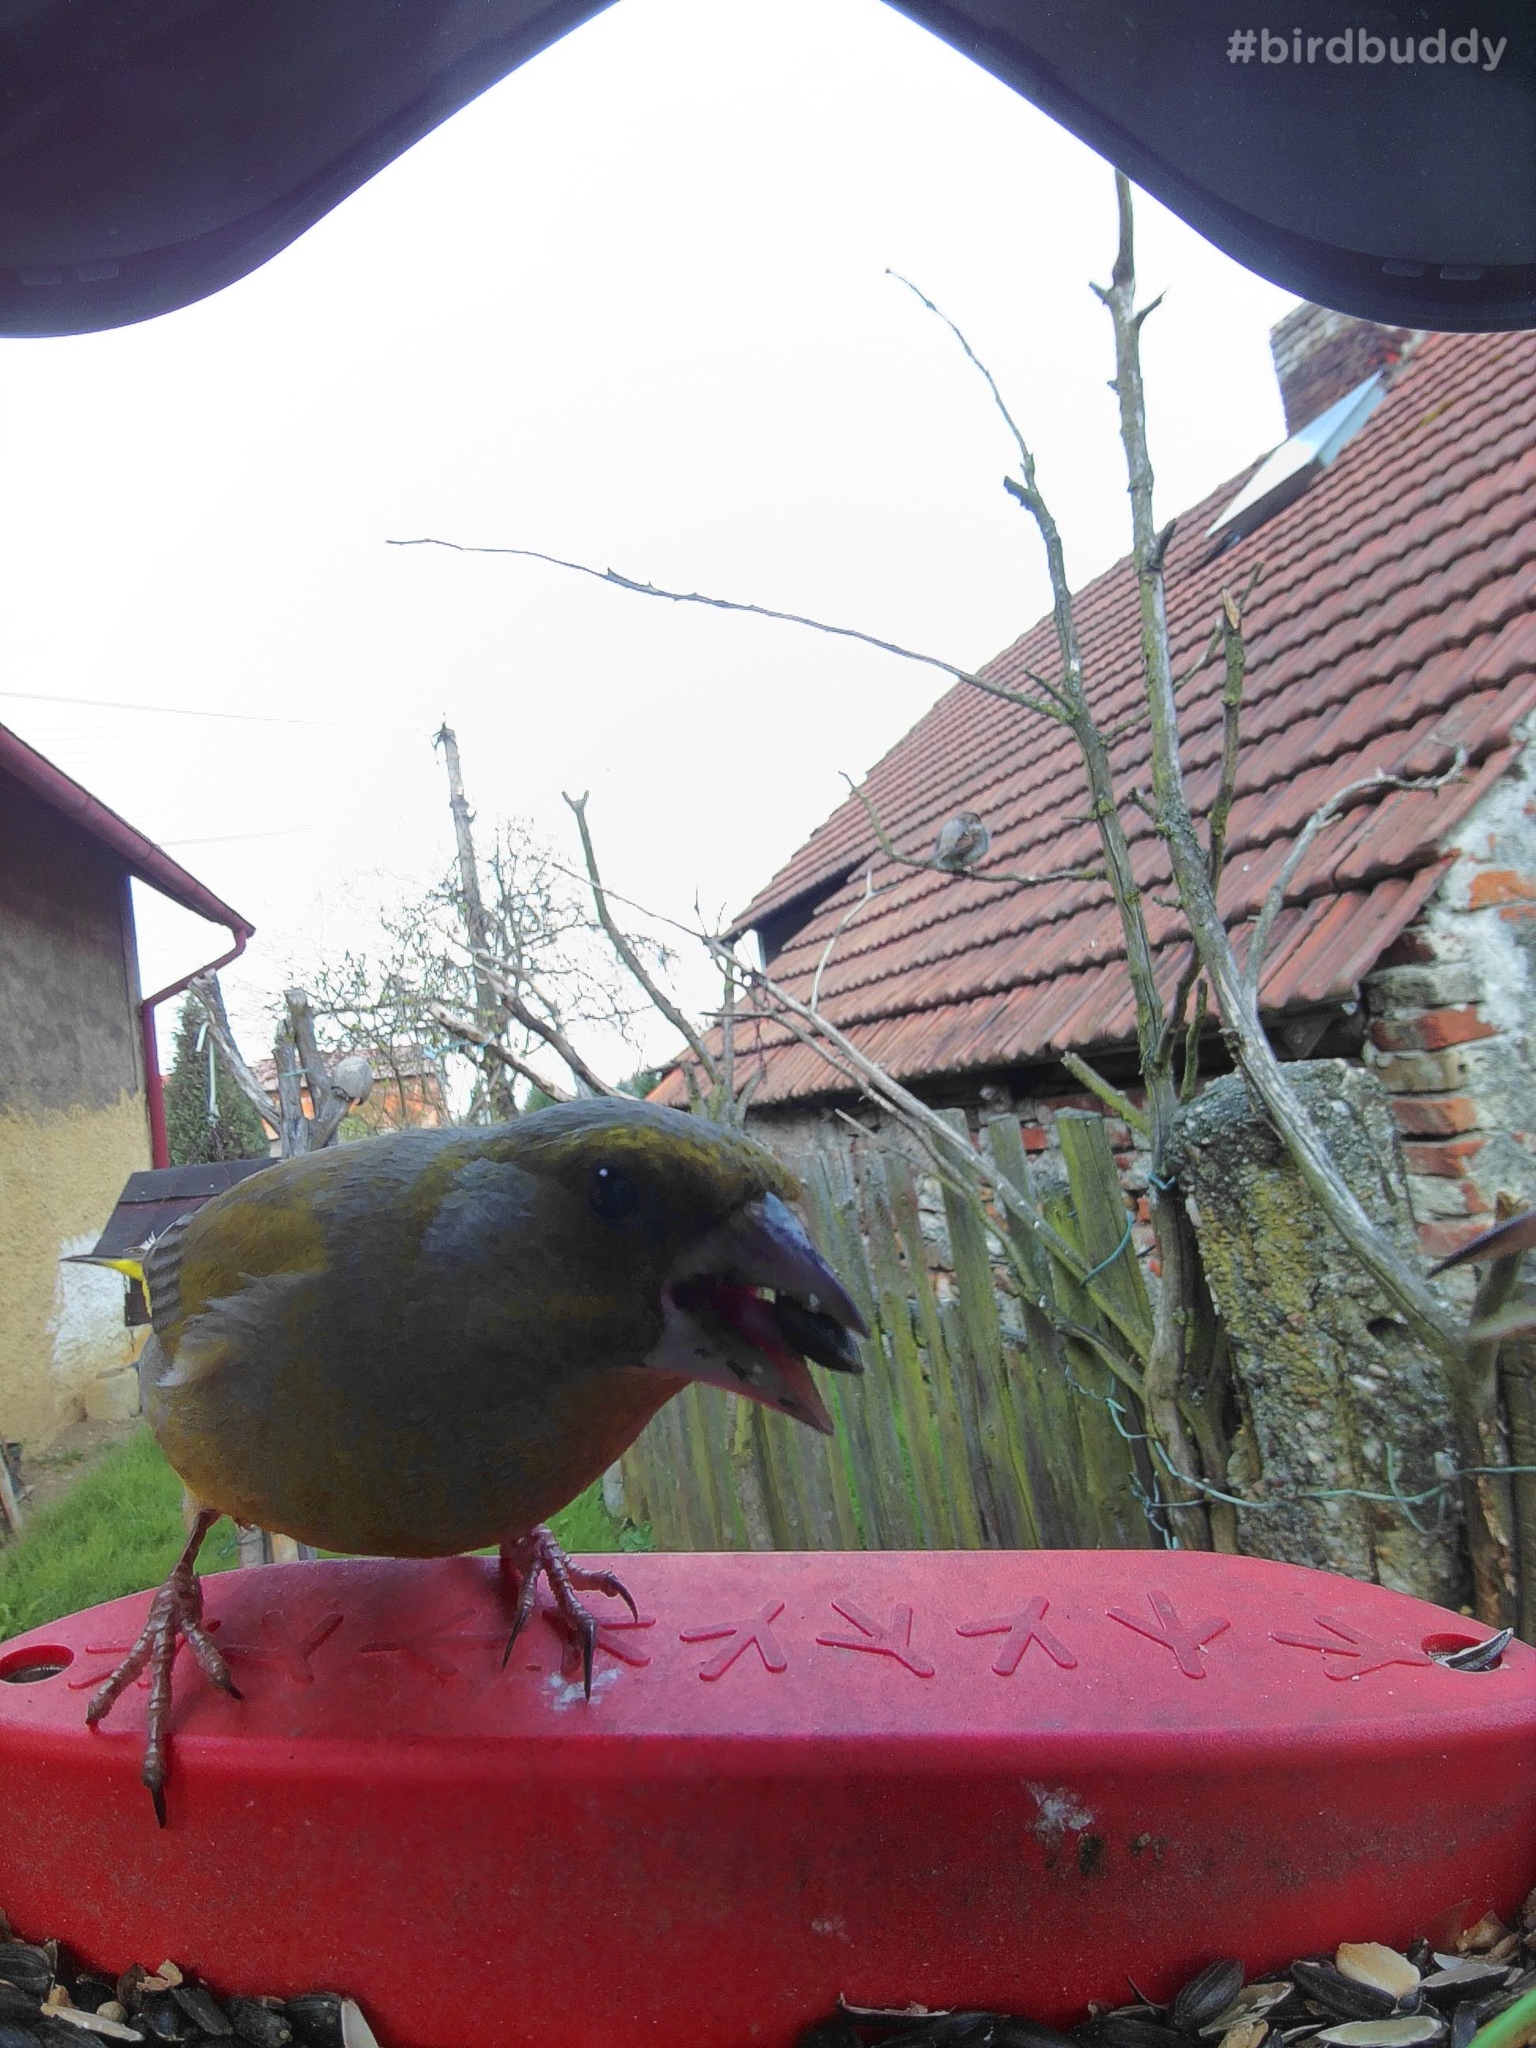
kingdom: Plantae
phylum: Tracheophyta
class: Liliopsida
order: Poales
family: Poaceae
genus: Chloris
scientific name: Chloris chloris
